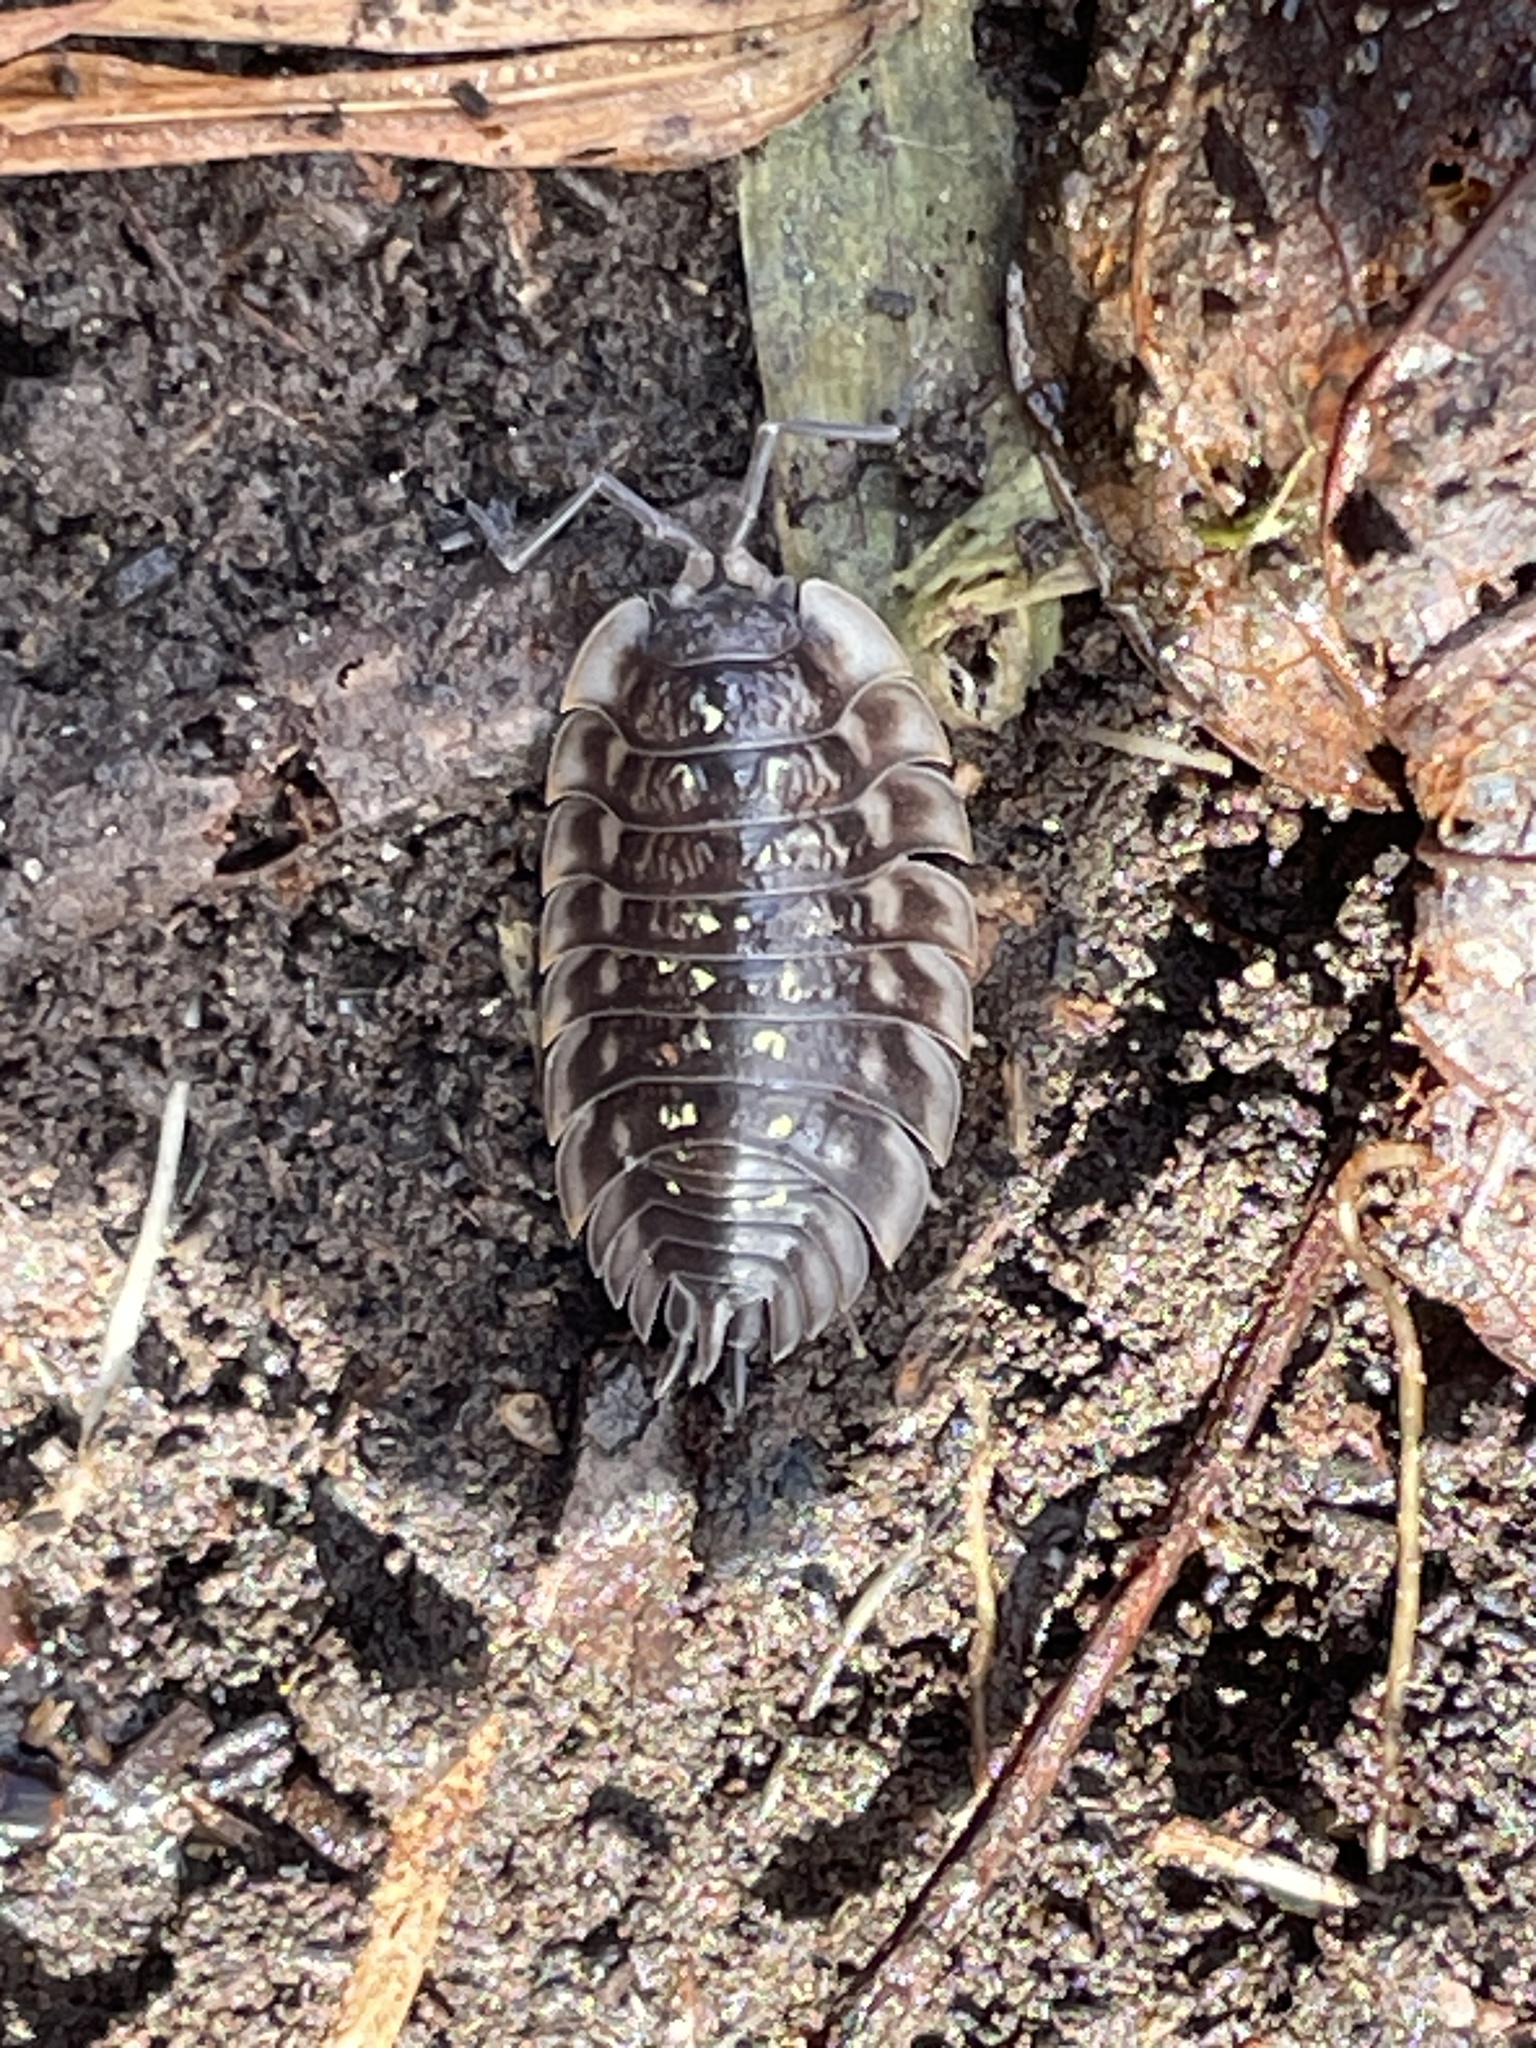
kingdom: Animalia
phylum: Arthropoda
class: Malacostraca
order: Isopoda
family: Oniscidae
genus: Oniscus
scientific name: Oniscus asellus
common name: Common shiny woodlouse
